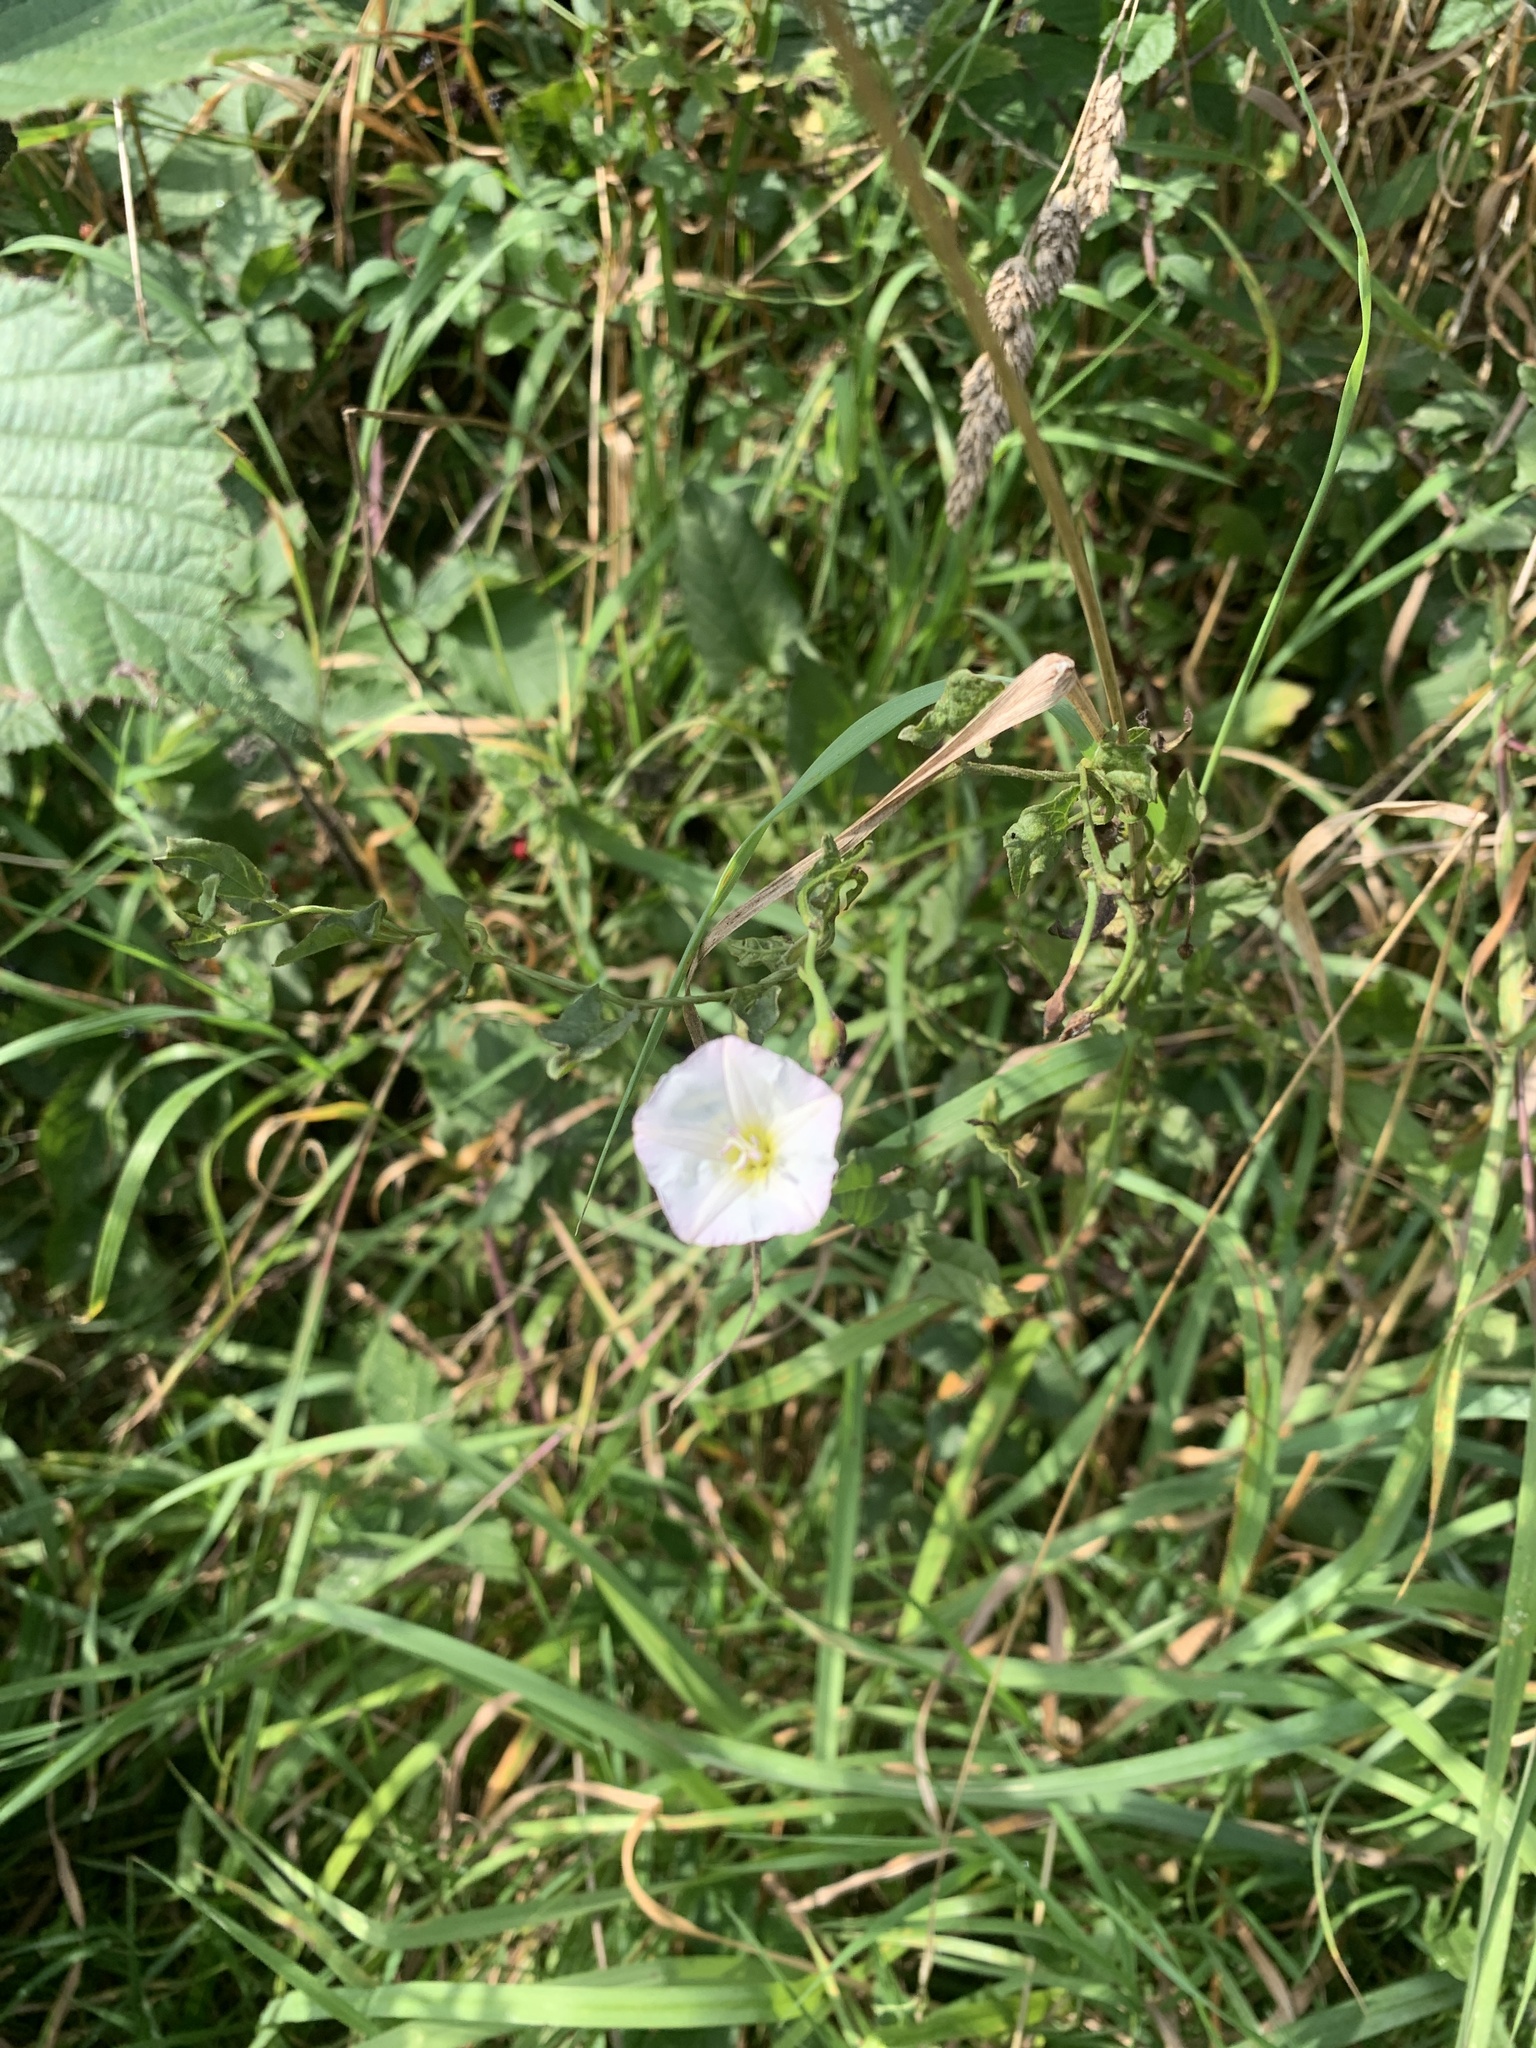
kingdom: Plantae
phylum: Tracheophyta
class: Magnoliopsida
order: Solanales
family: Convolvulaceae
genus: Convolvulus
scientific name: Convolvulus arvensis
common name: Field bindweed
